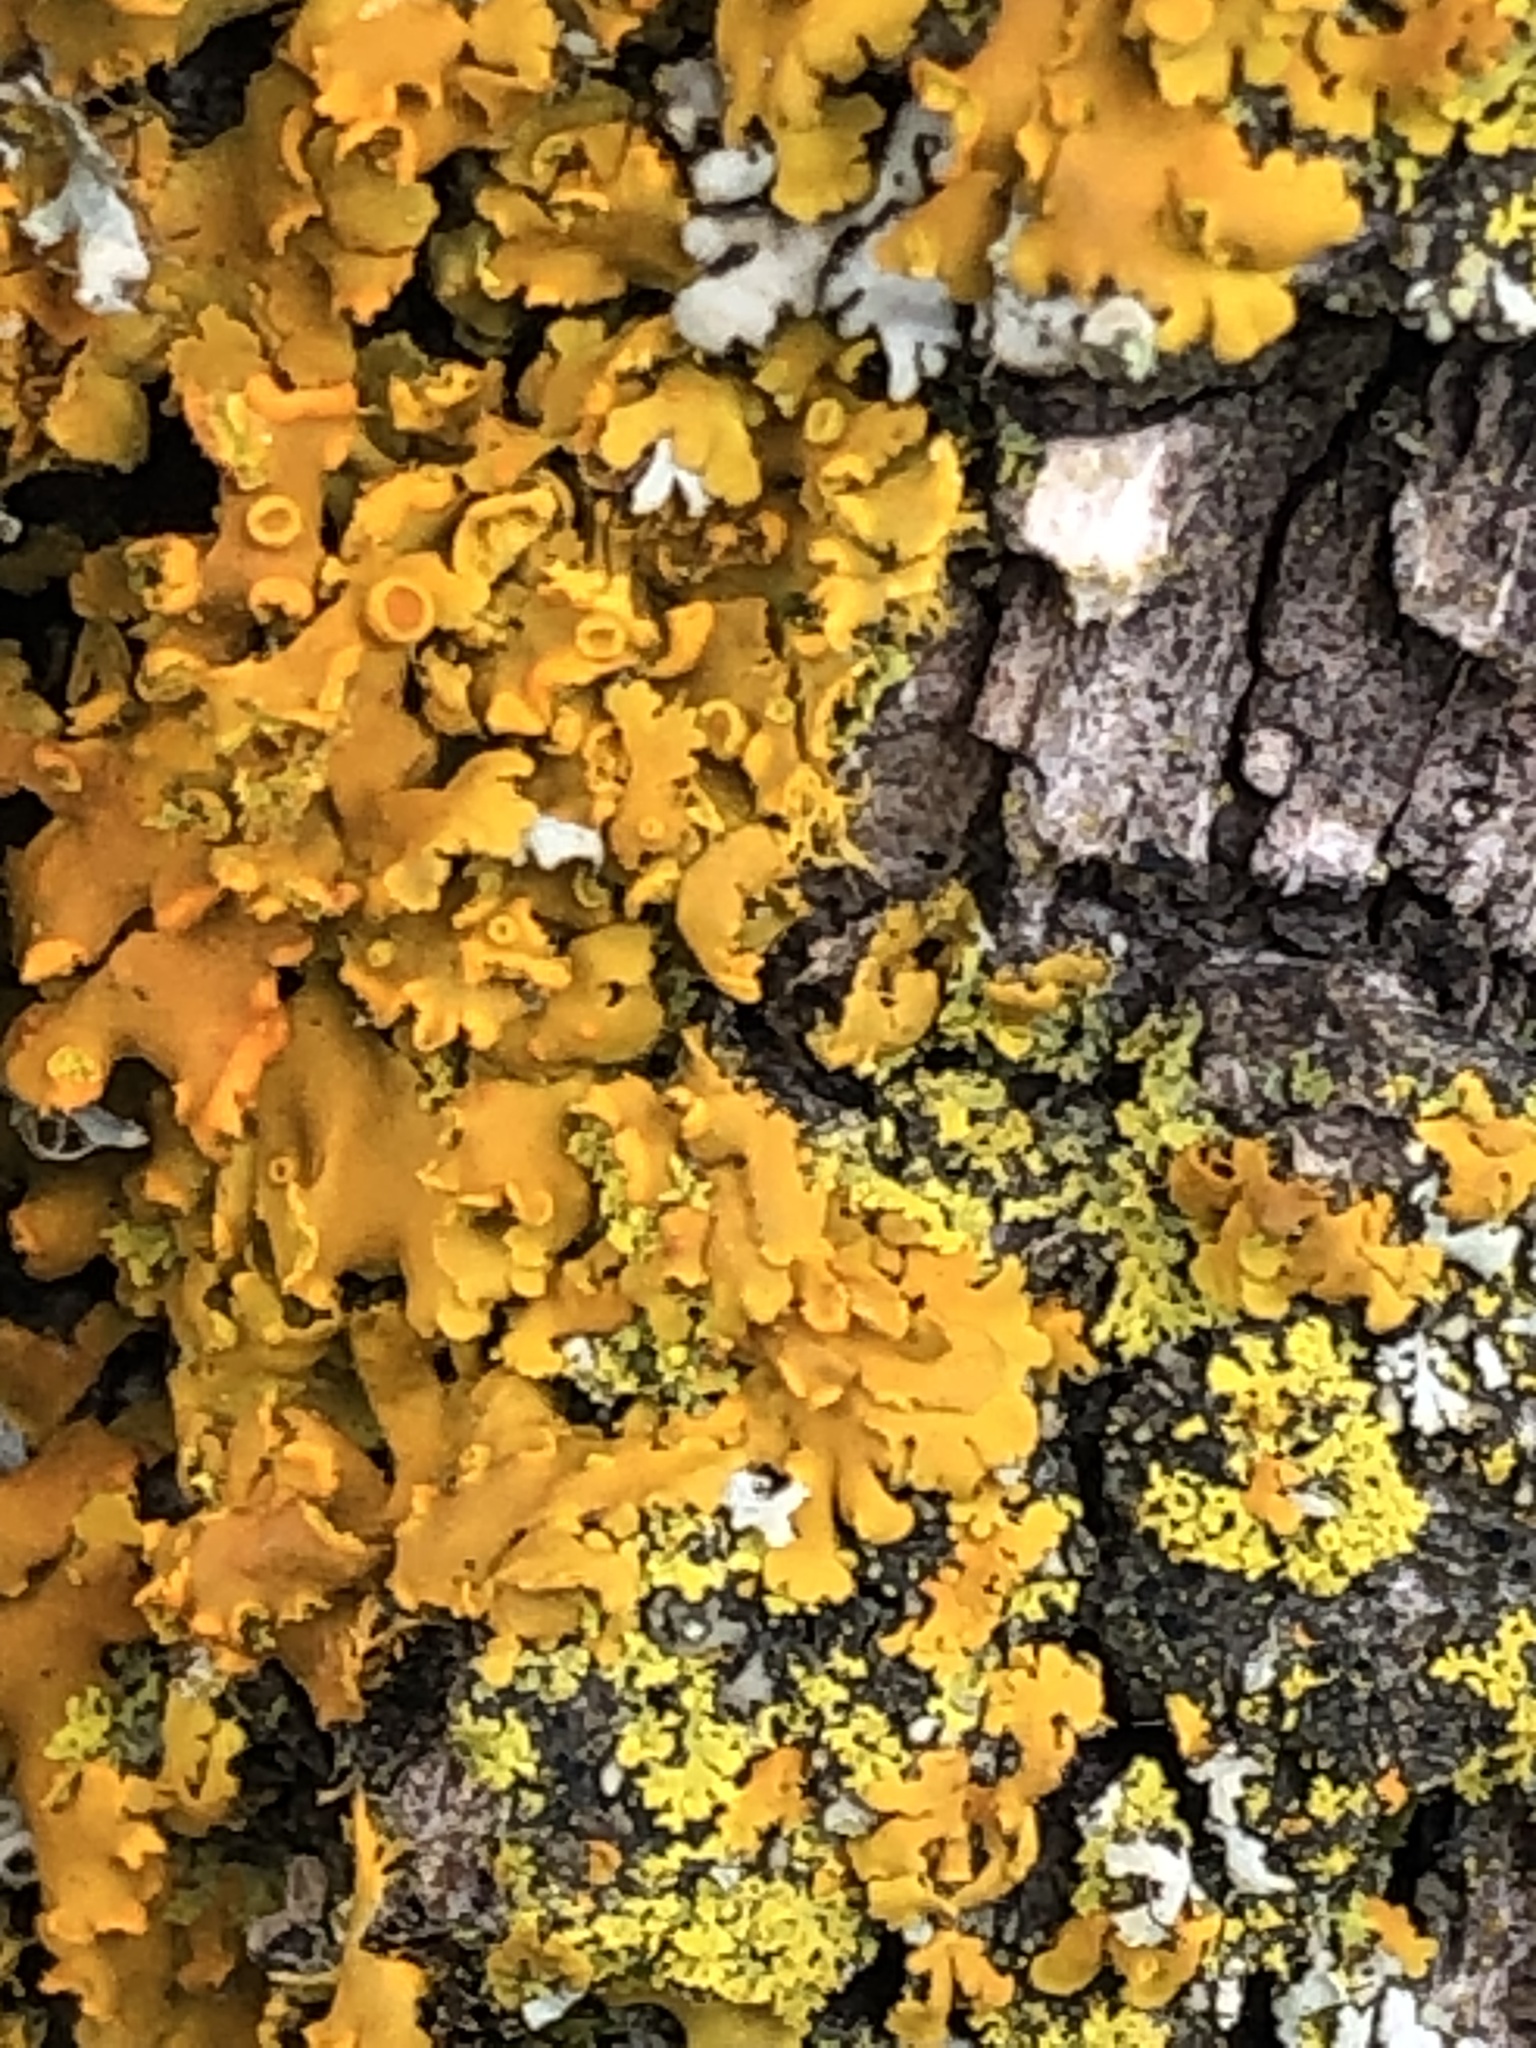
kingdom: Fungi
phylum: Ascomycota
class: Lecanoromycetes
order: Teloschistales
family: Teloschistaceae
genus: Oxneria
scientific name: Oxneria fallax
